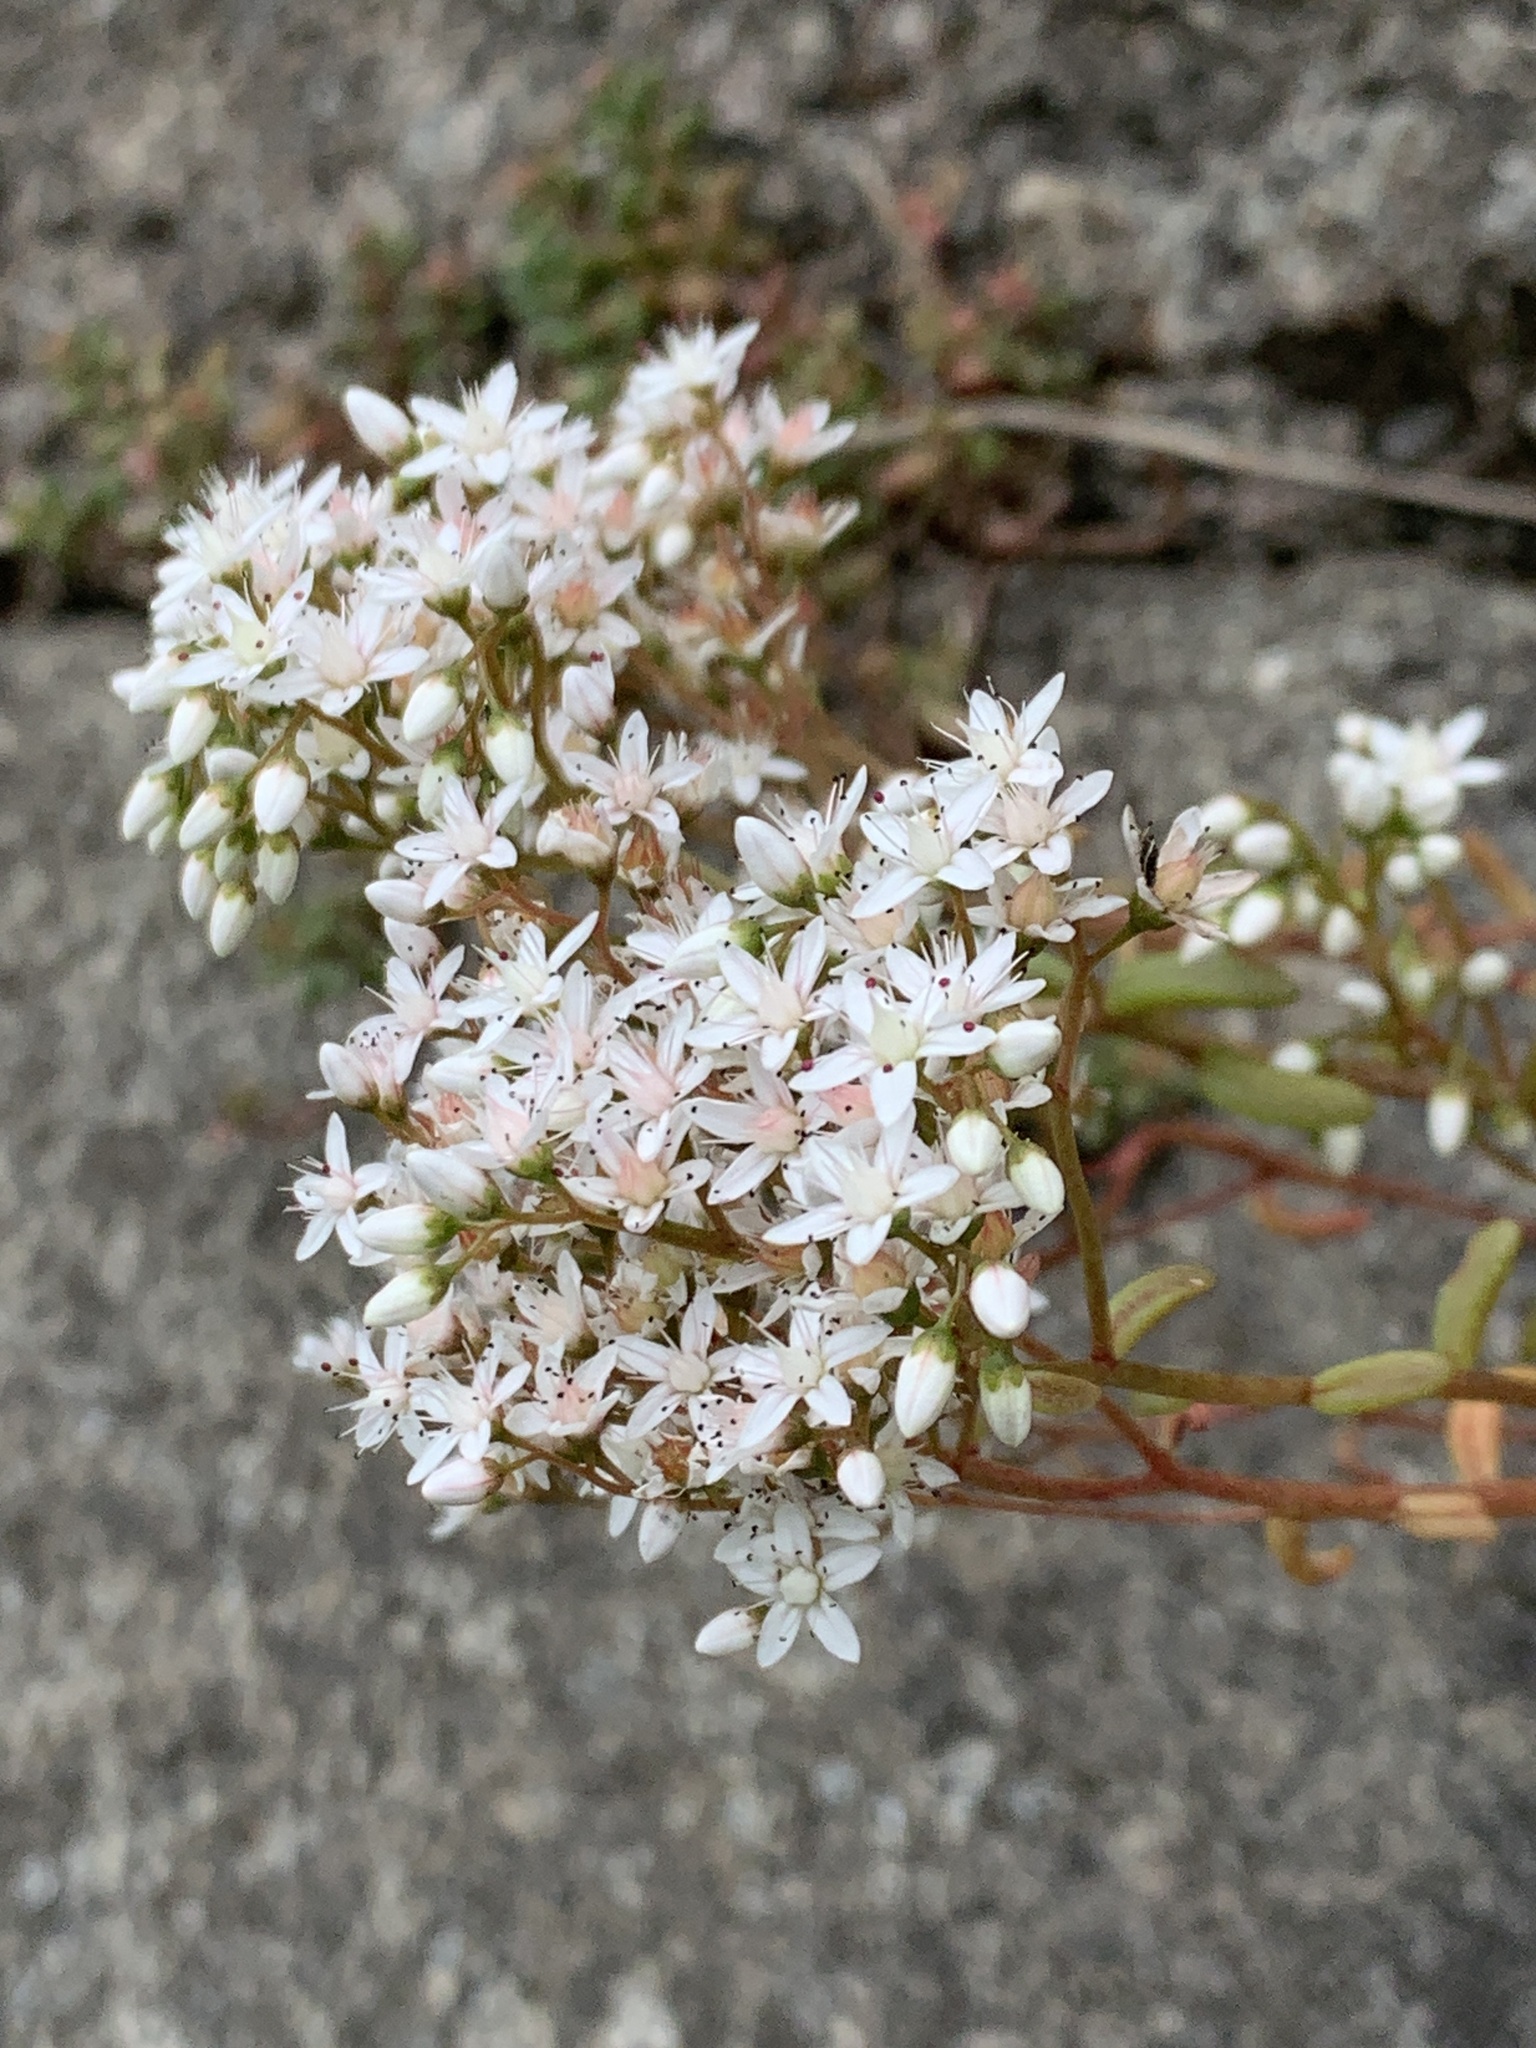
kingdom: Plantae
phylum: Tracheophyta
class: Magnoliopsida
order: Saxifragales
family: Crassulaceae
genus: Sedum
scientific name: Sedum album
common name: White stonecrop
